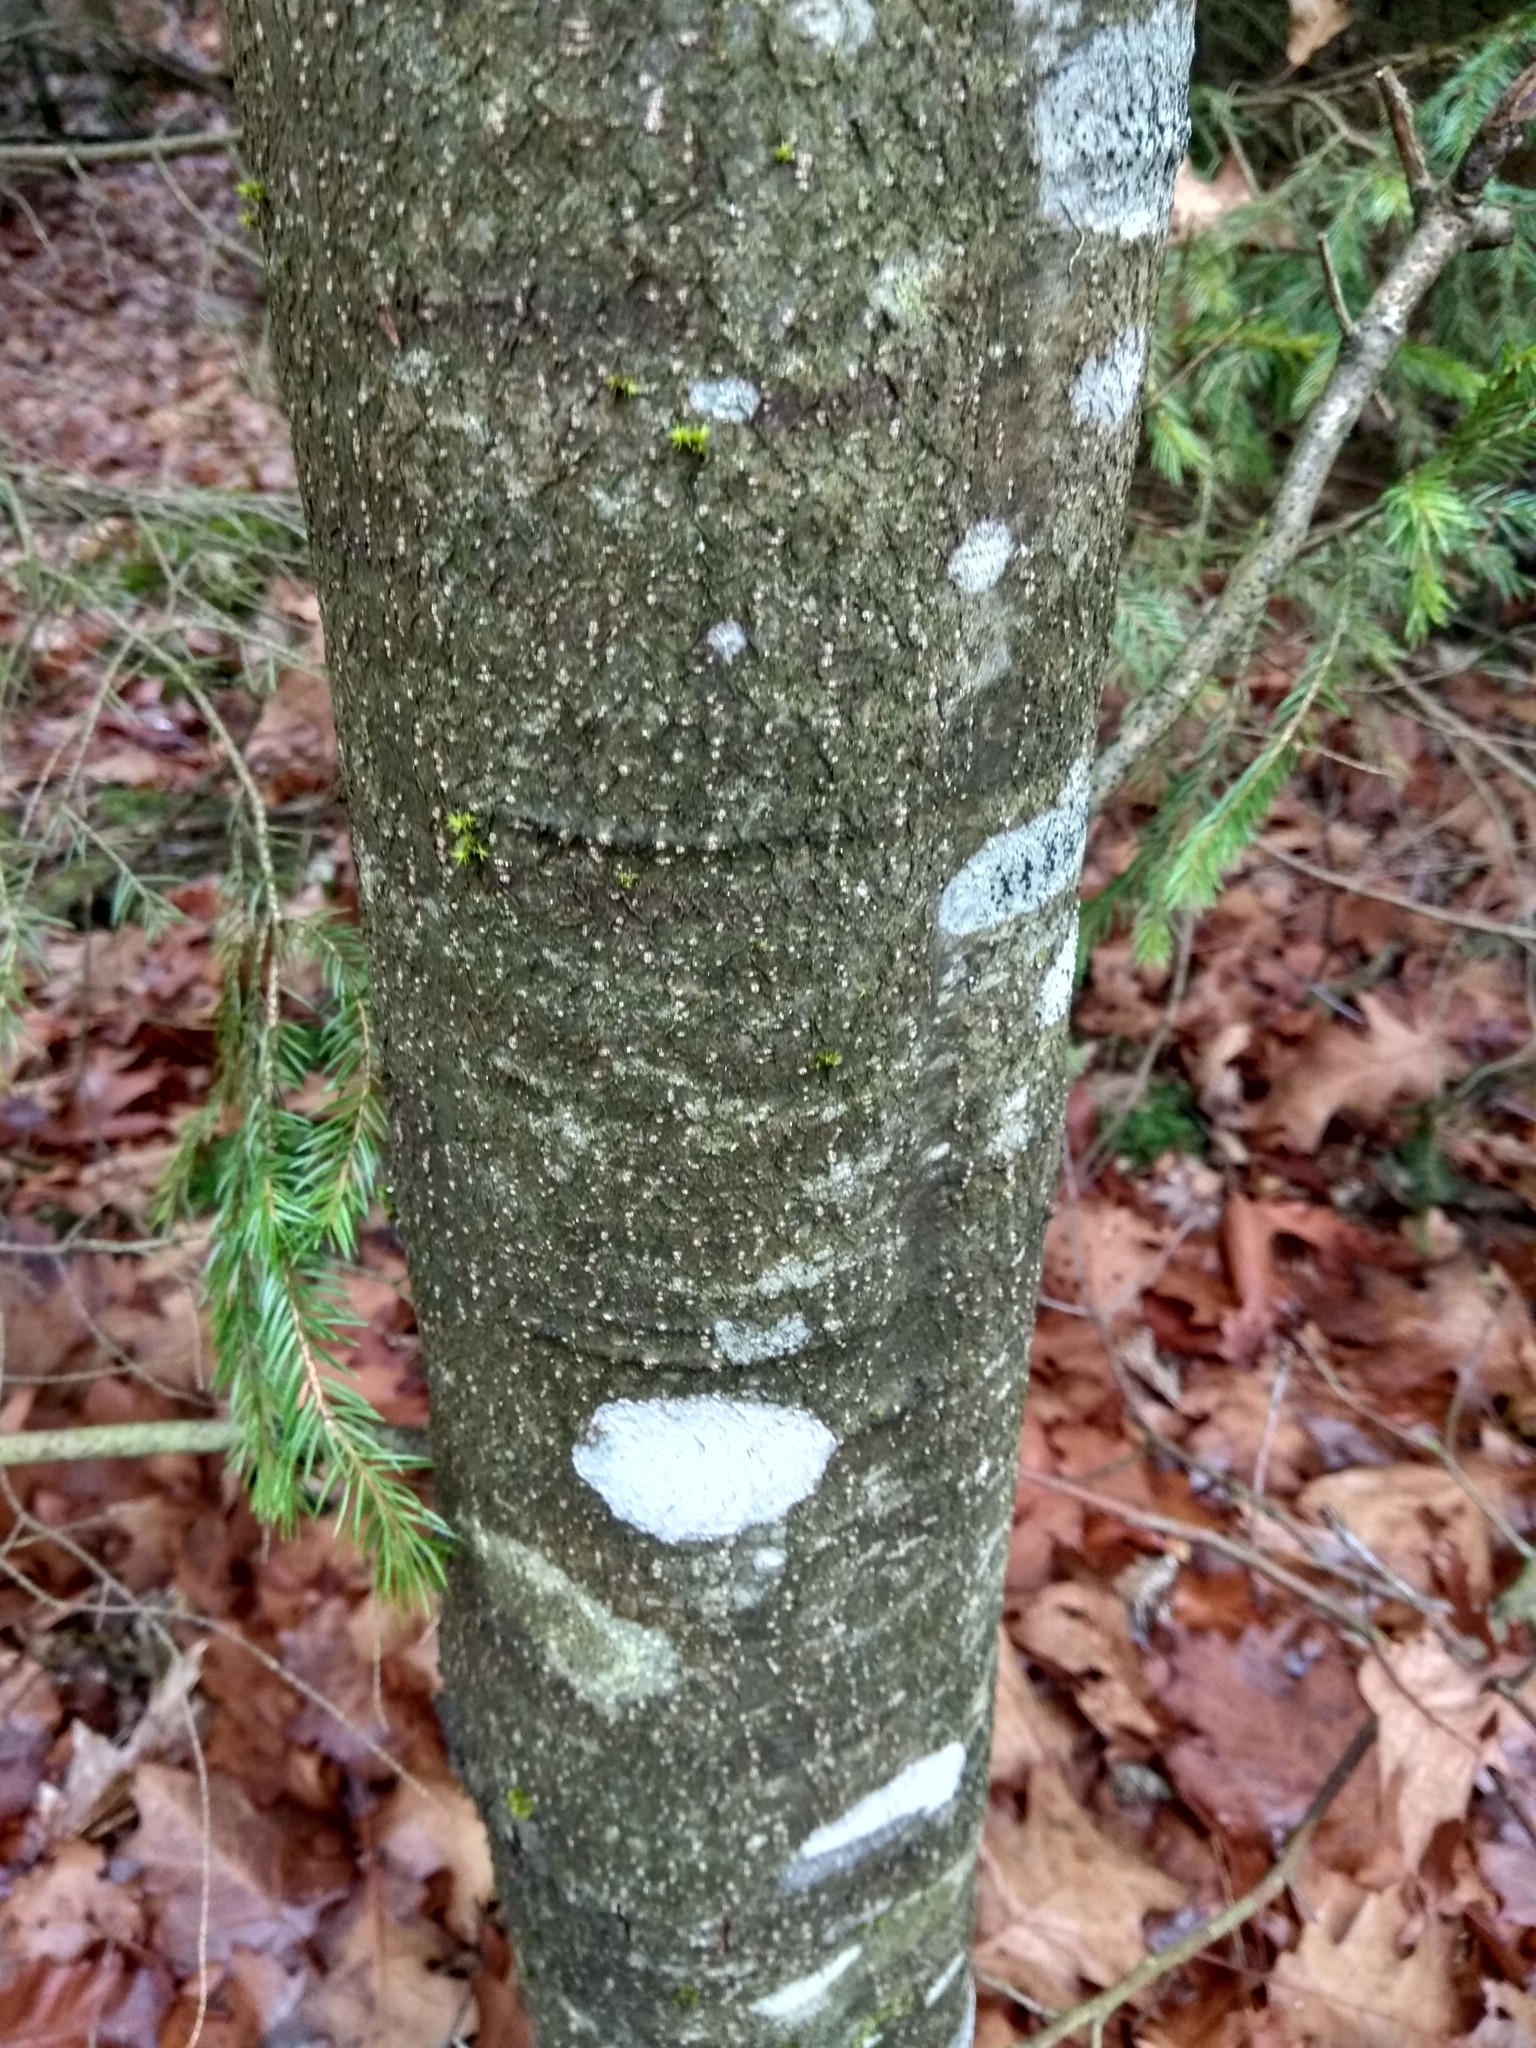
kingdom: Plantae
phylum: Tracheophyta
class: Magnoliopsida
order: Fagales
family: Fagaceae
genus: Quercus
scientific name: Quercus rubra
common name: Red oak
